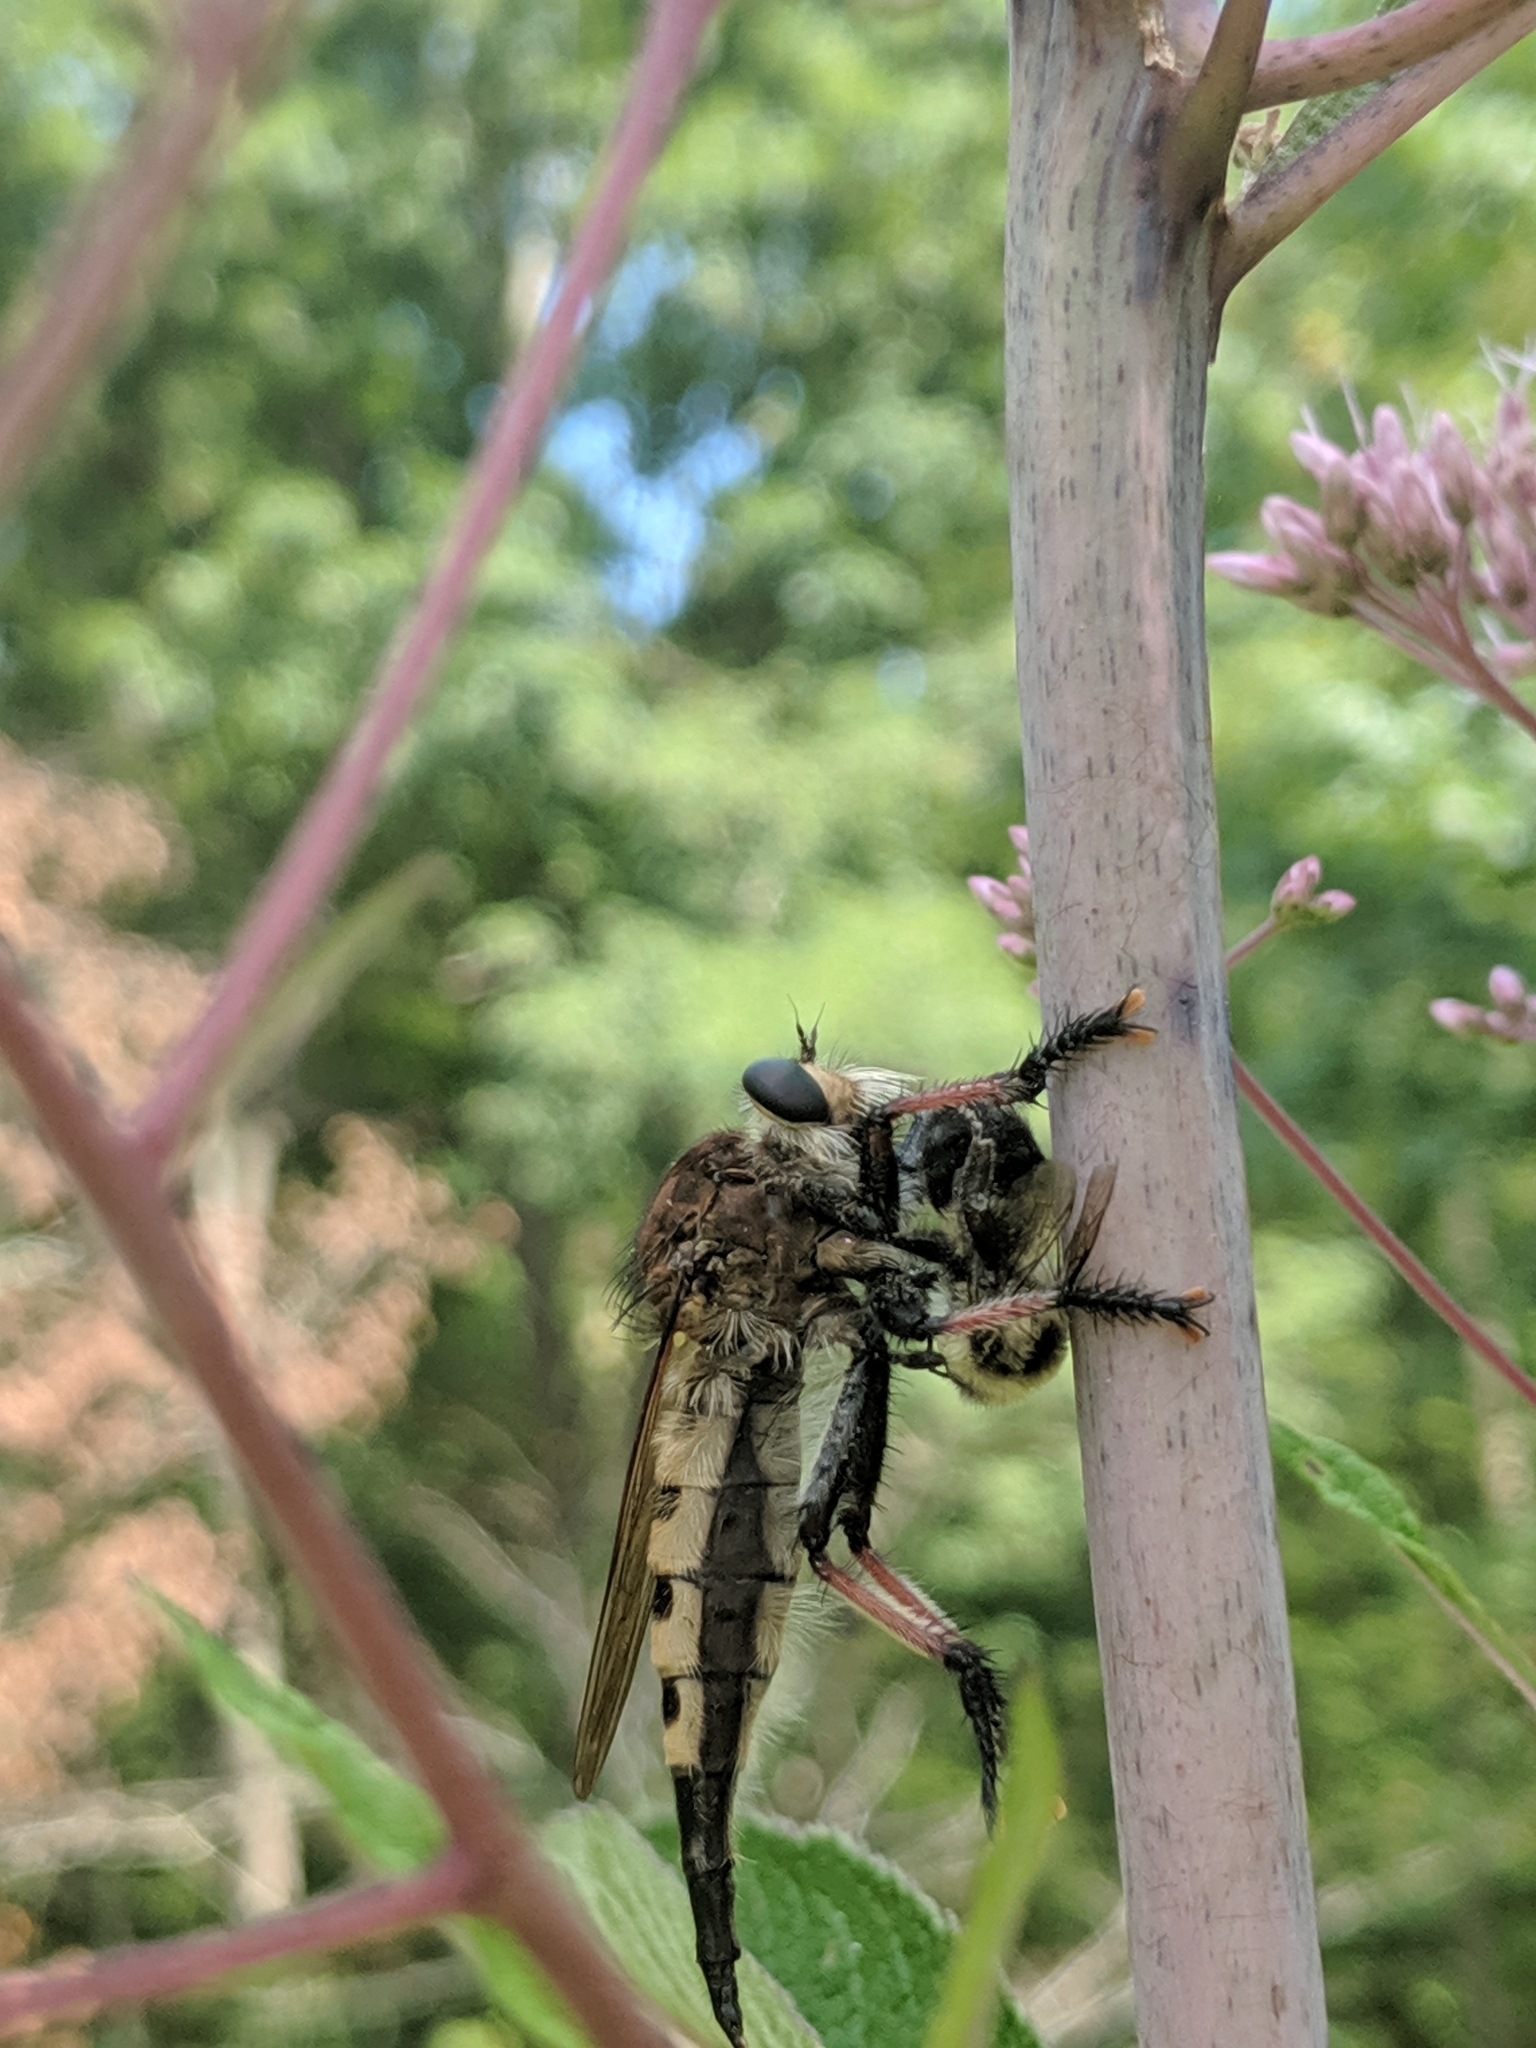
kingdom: Animalia
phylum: Arthropoda
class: Insecta
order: Diptera
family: Asilidae
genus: Promachus
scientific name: Promachus rufipes
